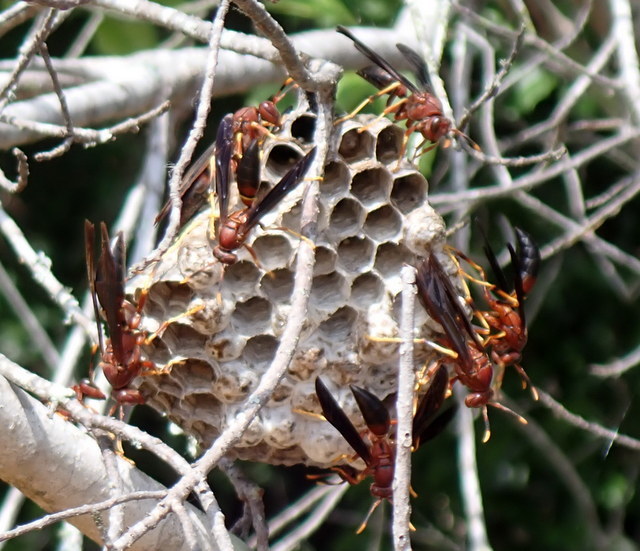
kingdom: Animalia
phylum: Arthropoda
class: Insecta
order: Hymenoptera
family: Eumenidae
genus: Polistes
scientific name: Polistes annularis
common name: Ringed paper wasp
